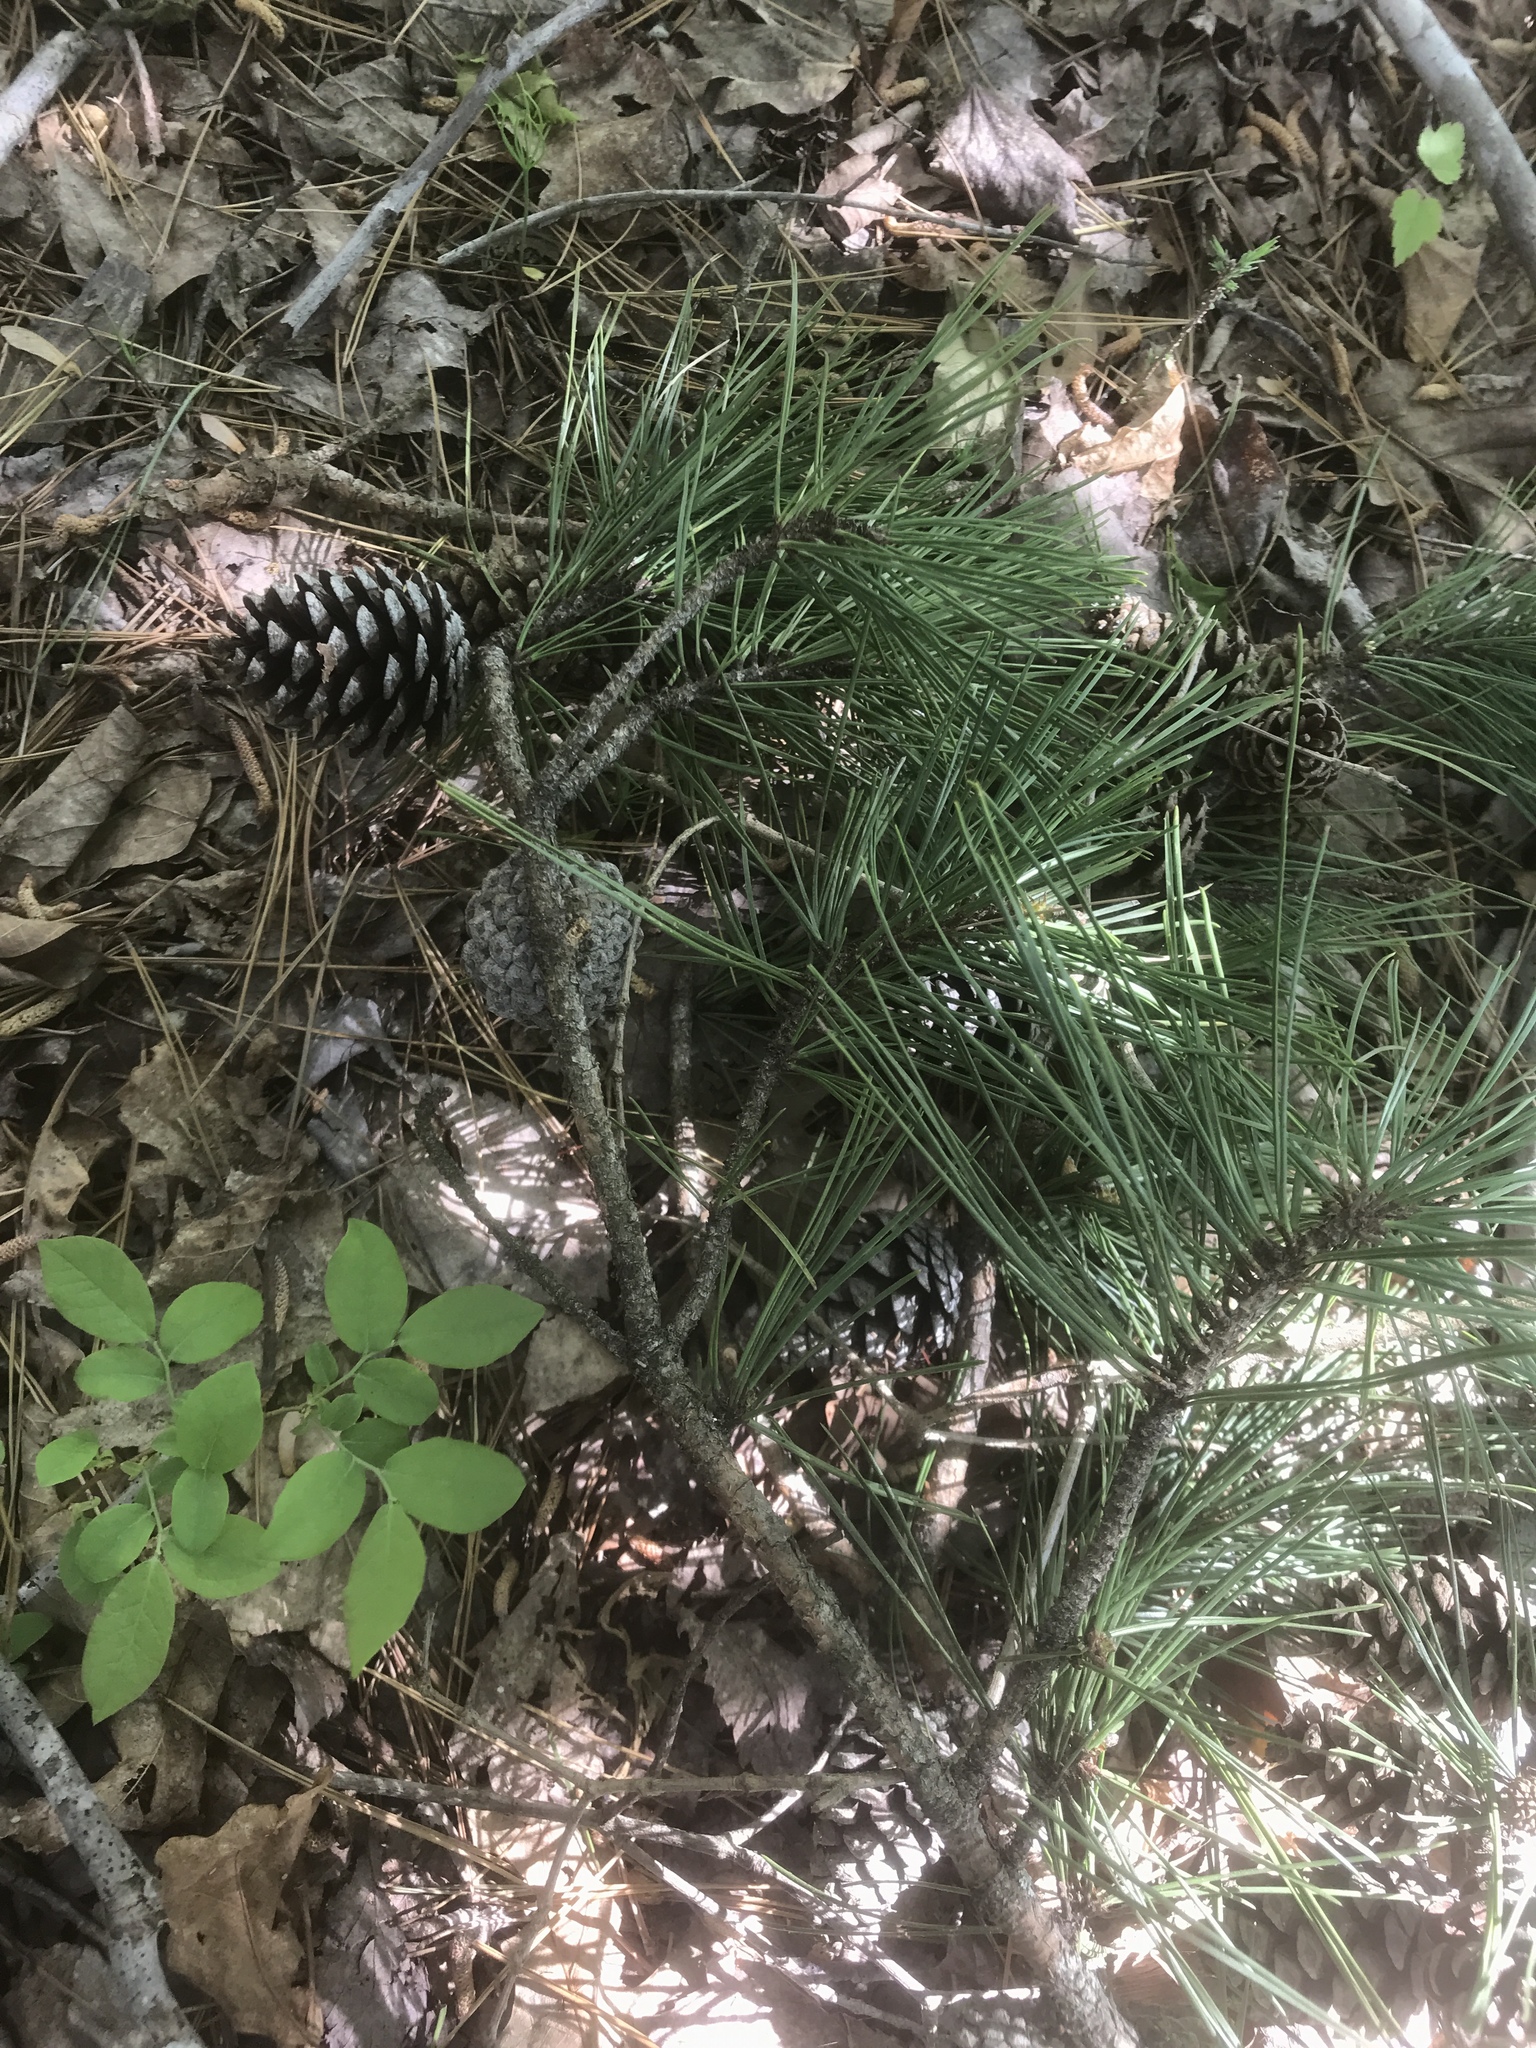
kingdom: Plantae
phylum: Tracheophyta
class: Pinopsida
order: Pinales
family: Pinaceae
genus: Pinus
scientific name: Pinus echinata
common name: Shortleaf pine
